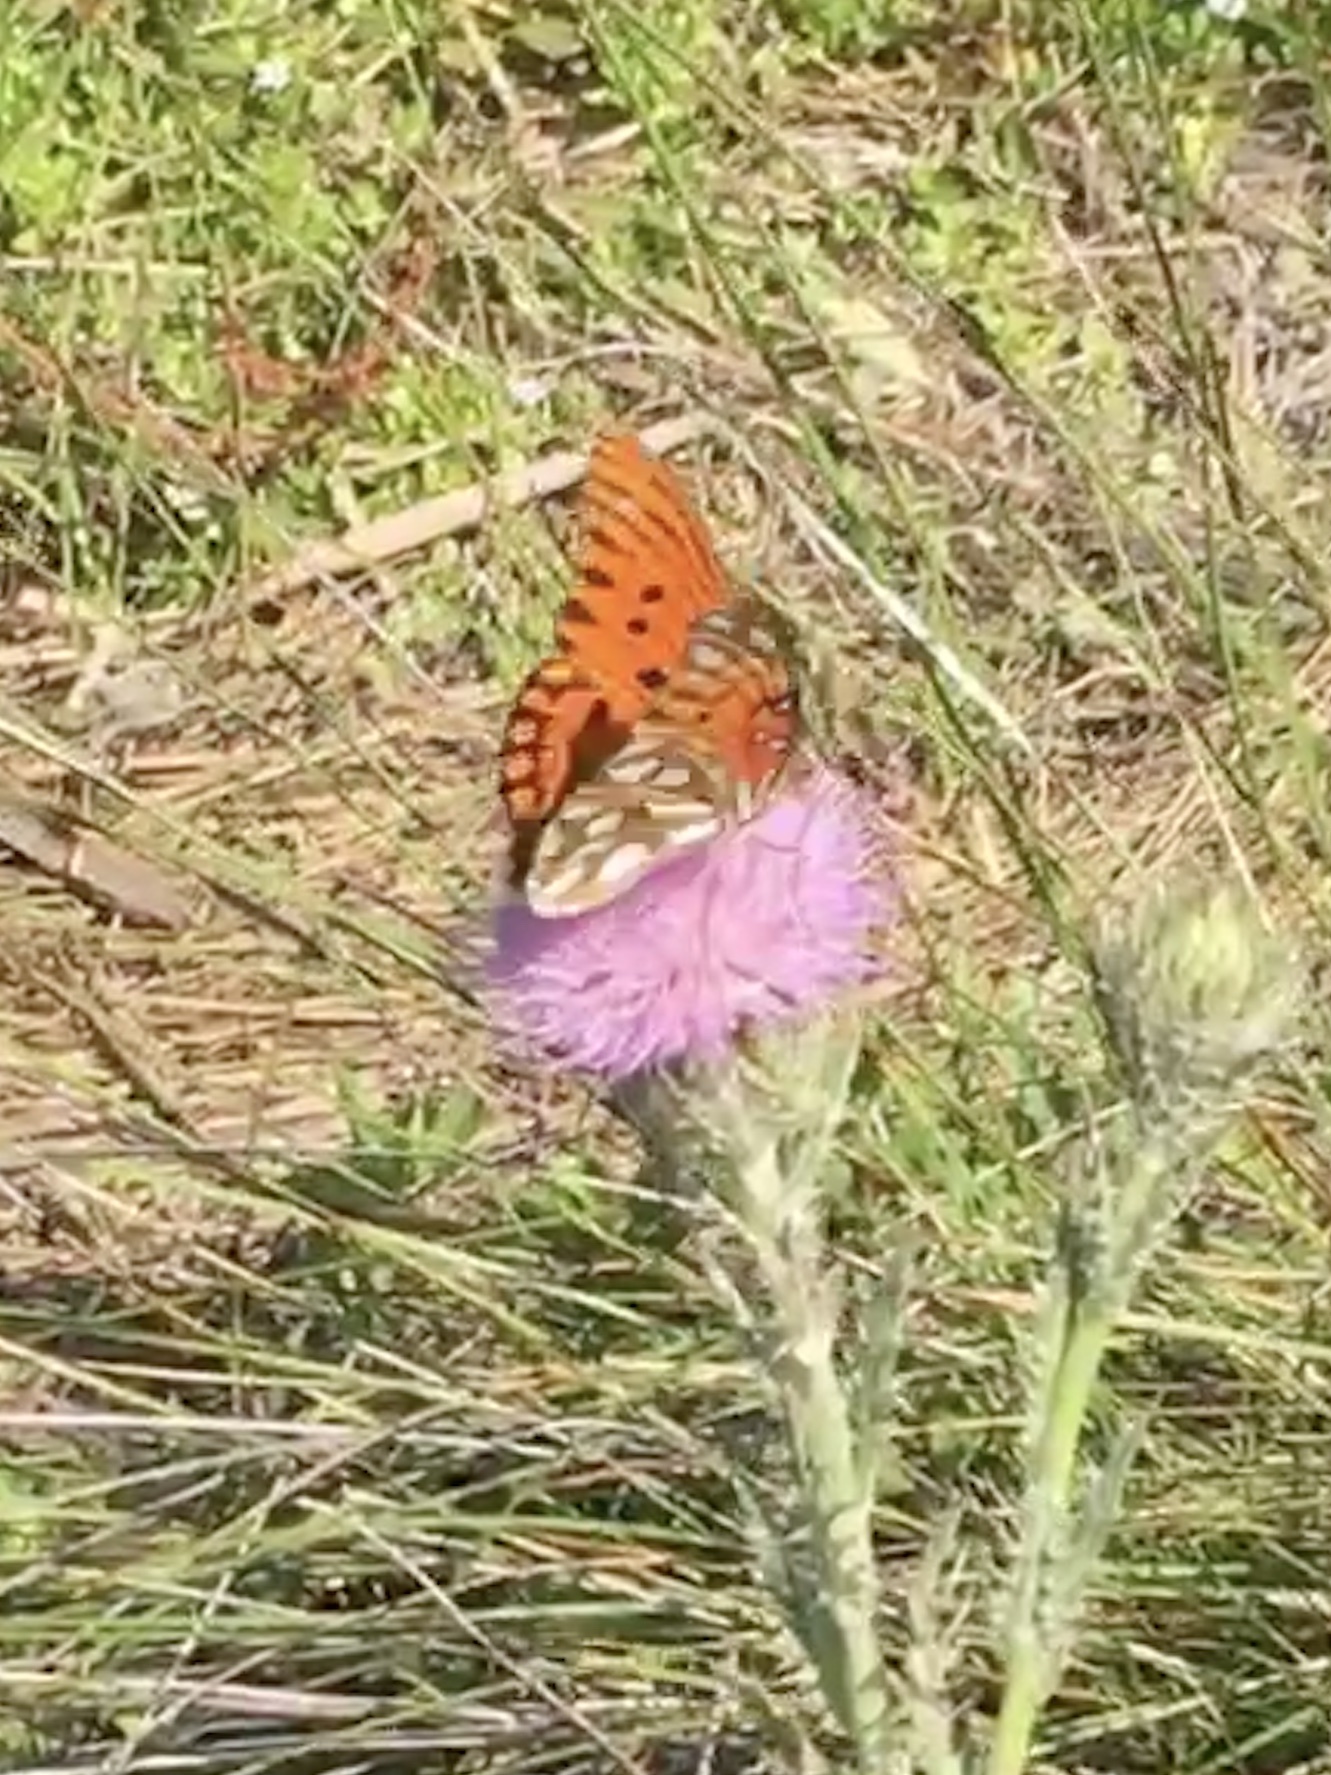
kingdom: Animalia
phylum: Arthropoda
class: Insecta
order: Lepidoptera
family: Nymphalidae
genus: Dione
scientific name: Dione vanillae
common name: Gulf fritillary
